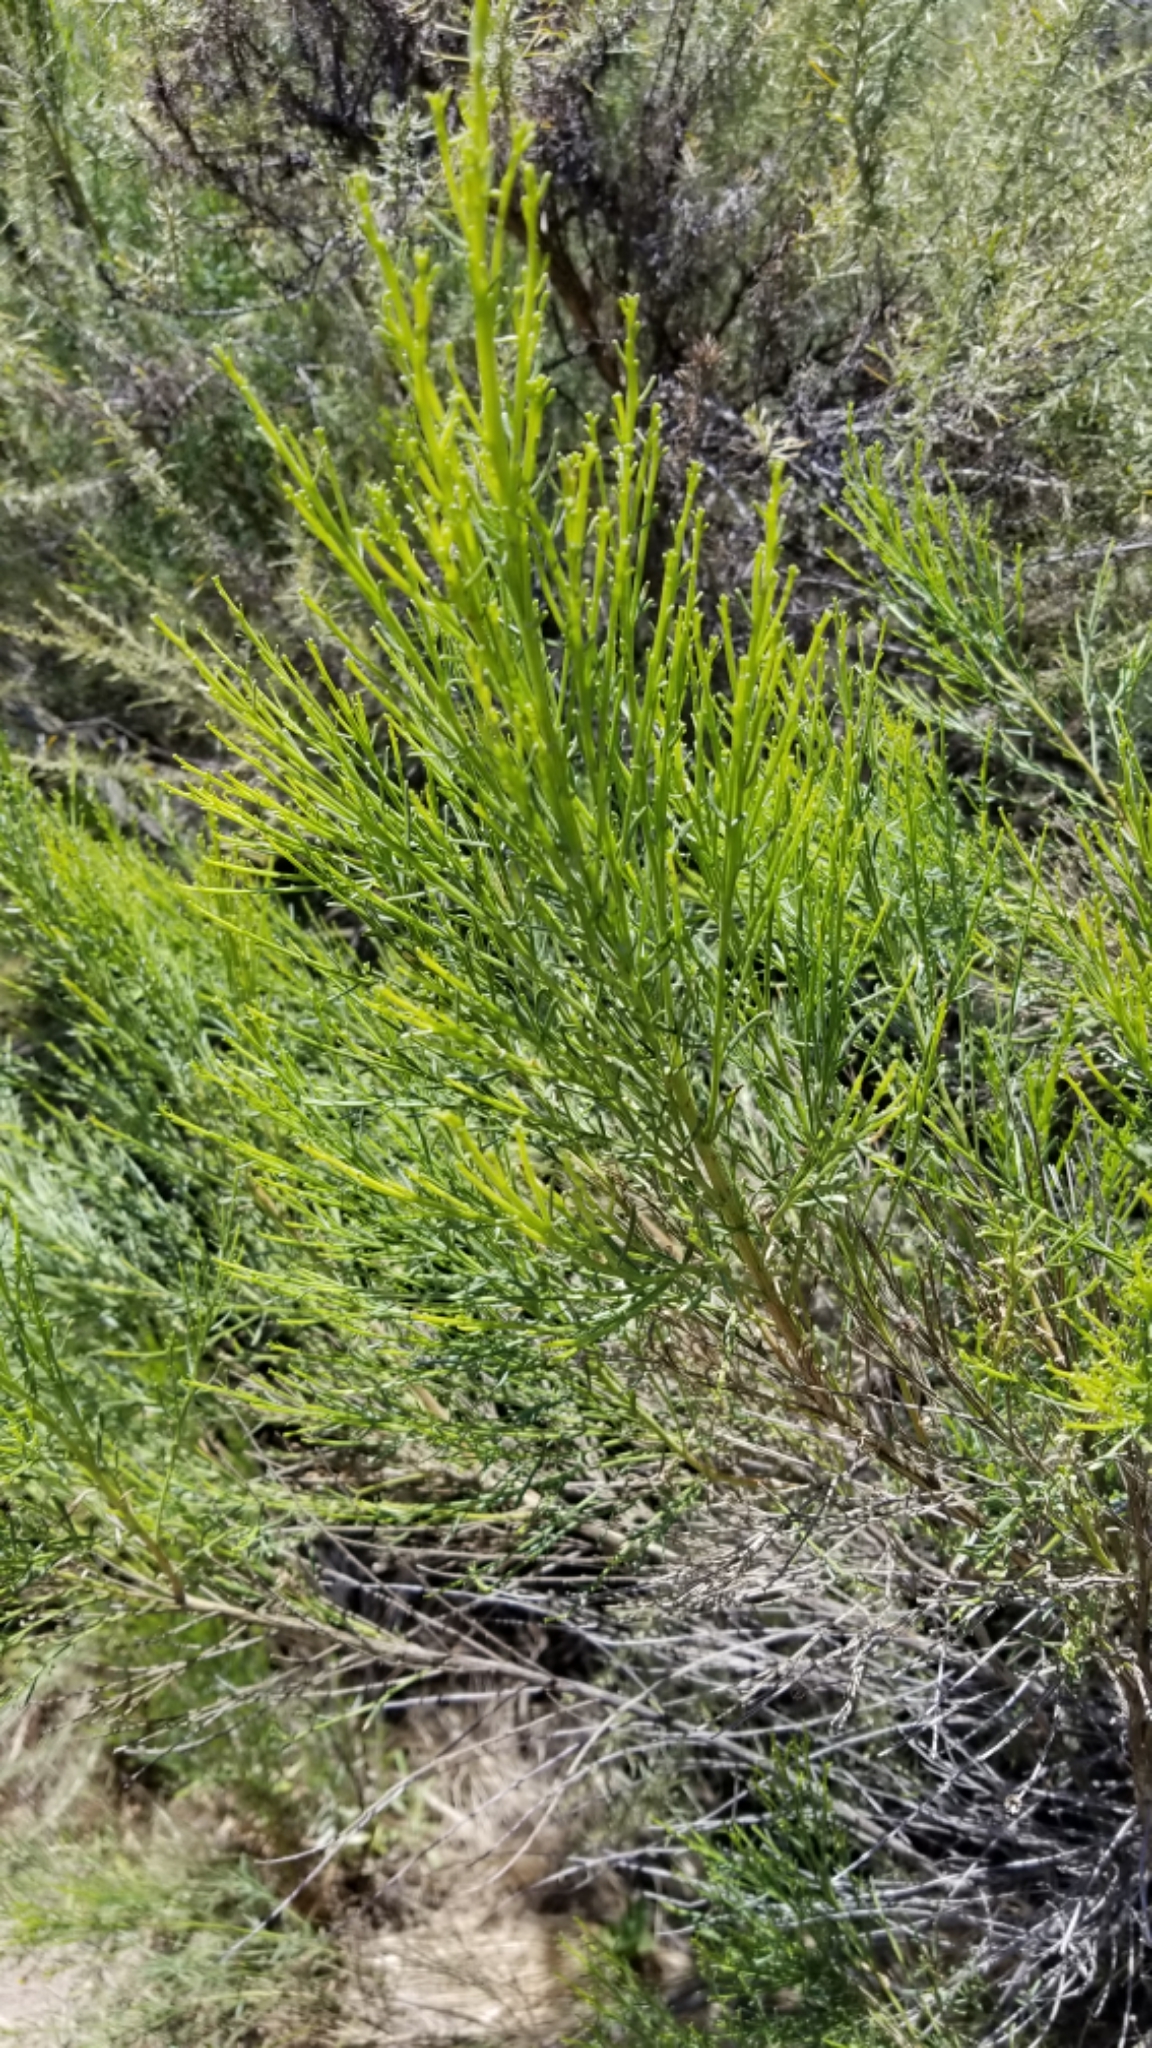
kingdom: Plantae
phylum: Tracheophyta
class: Magnoliopsida
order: Asterales
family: Asteraceae
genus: Baccharis
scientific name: Baccharis sarothroides
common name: Desert-broom
